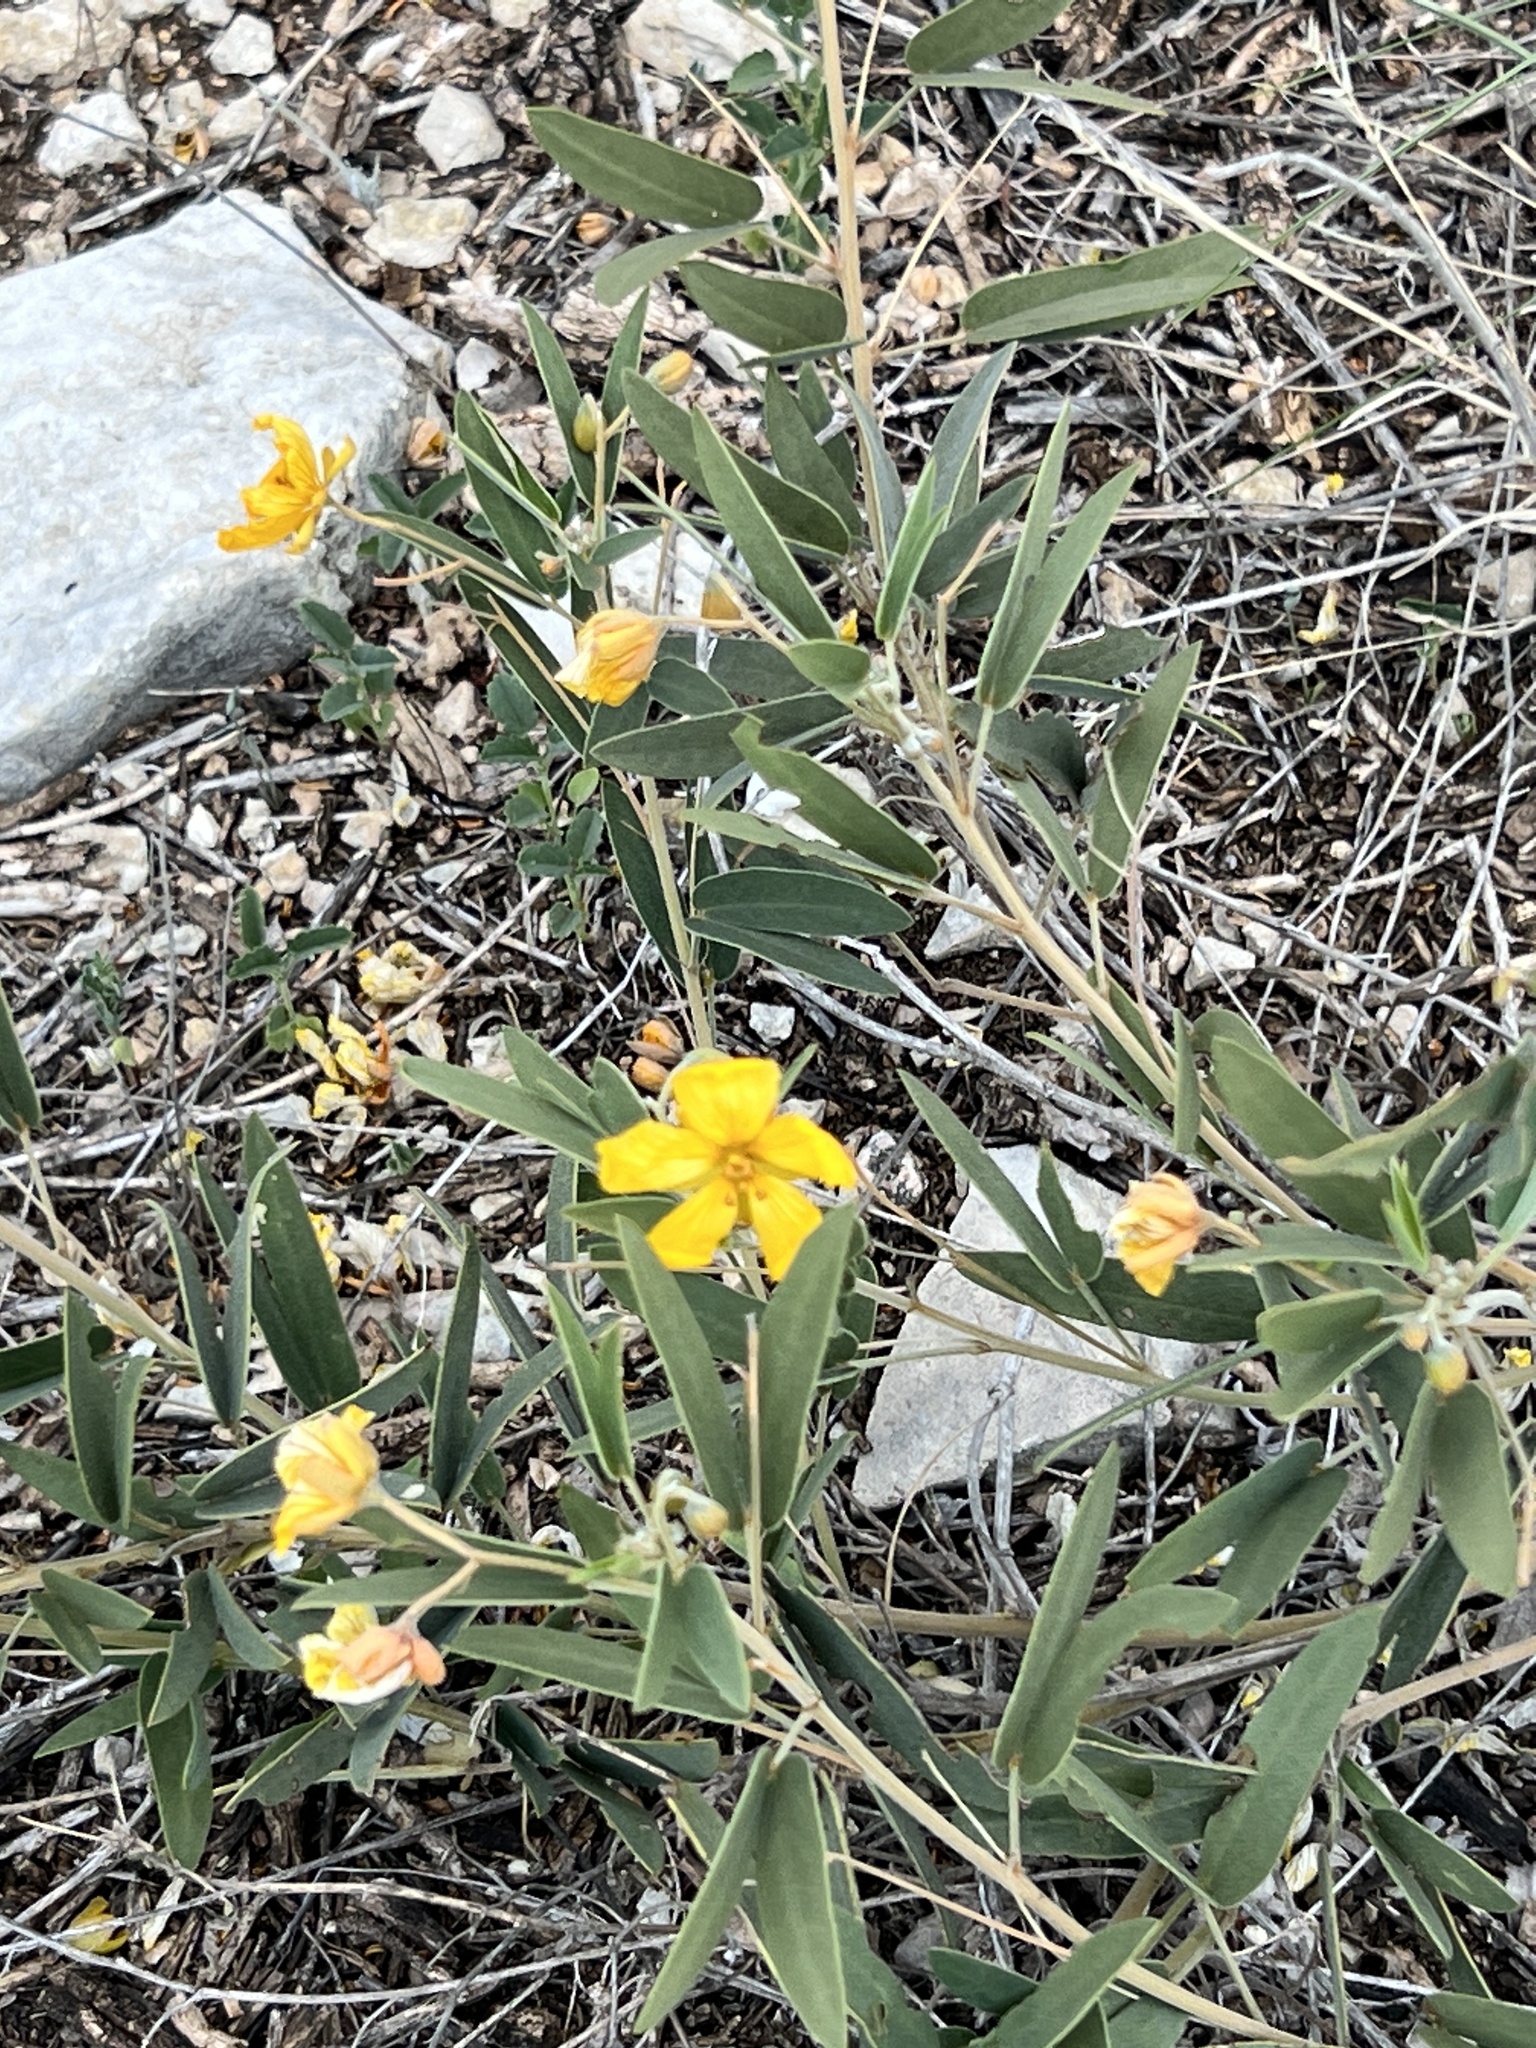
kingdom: Plantae
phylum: Tracheophyta
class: Magnoliopsida
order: Fabales
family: Fabaceae
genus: Senna
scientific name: Senna roemeriana
